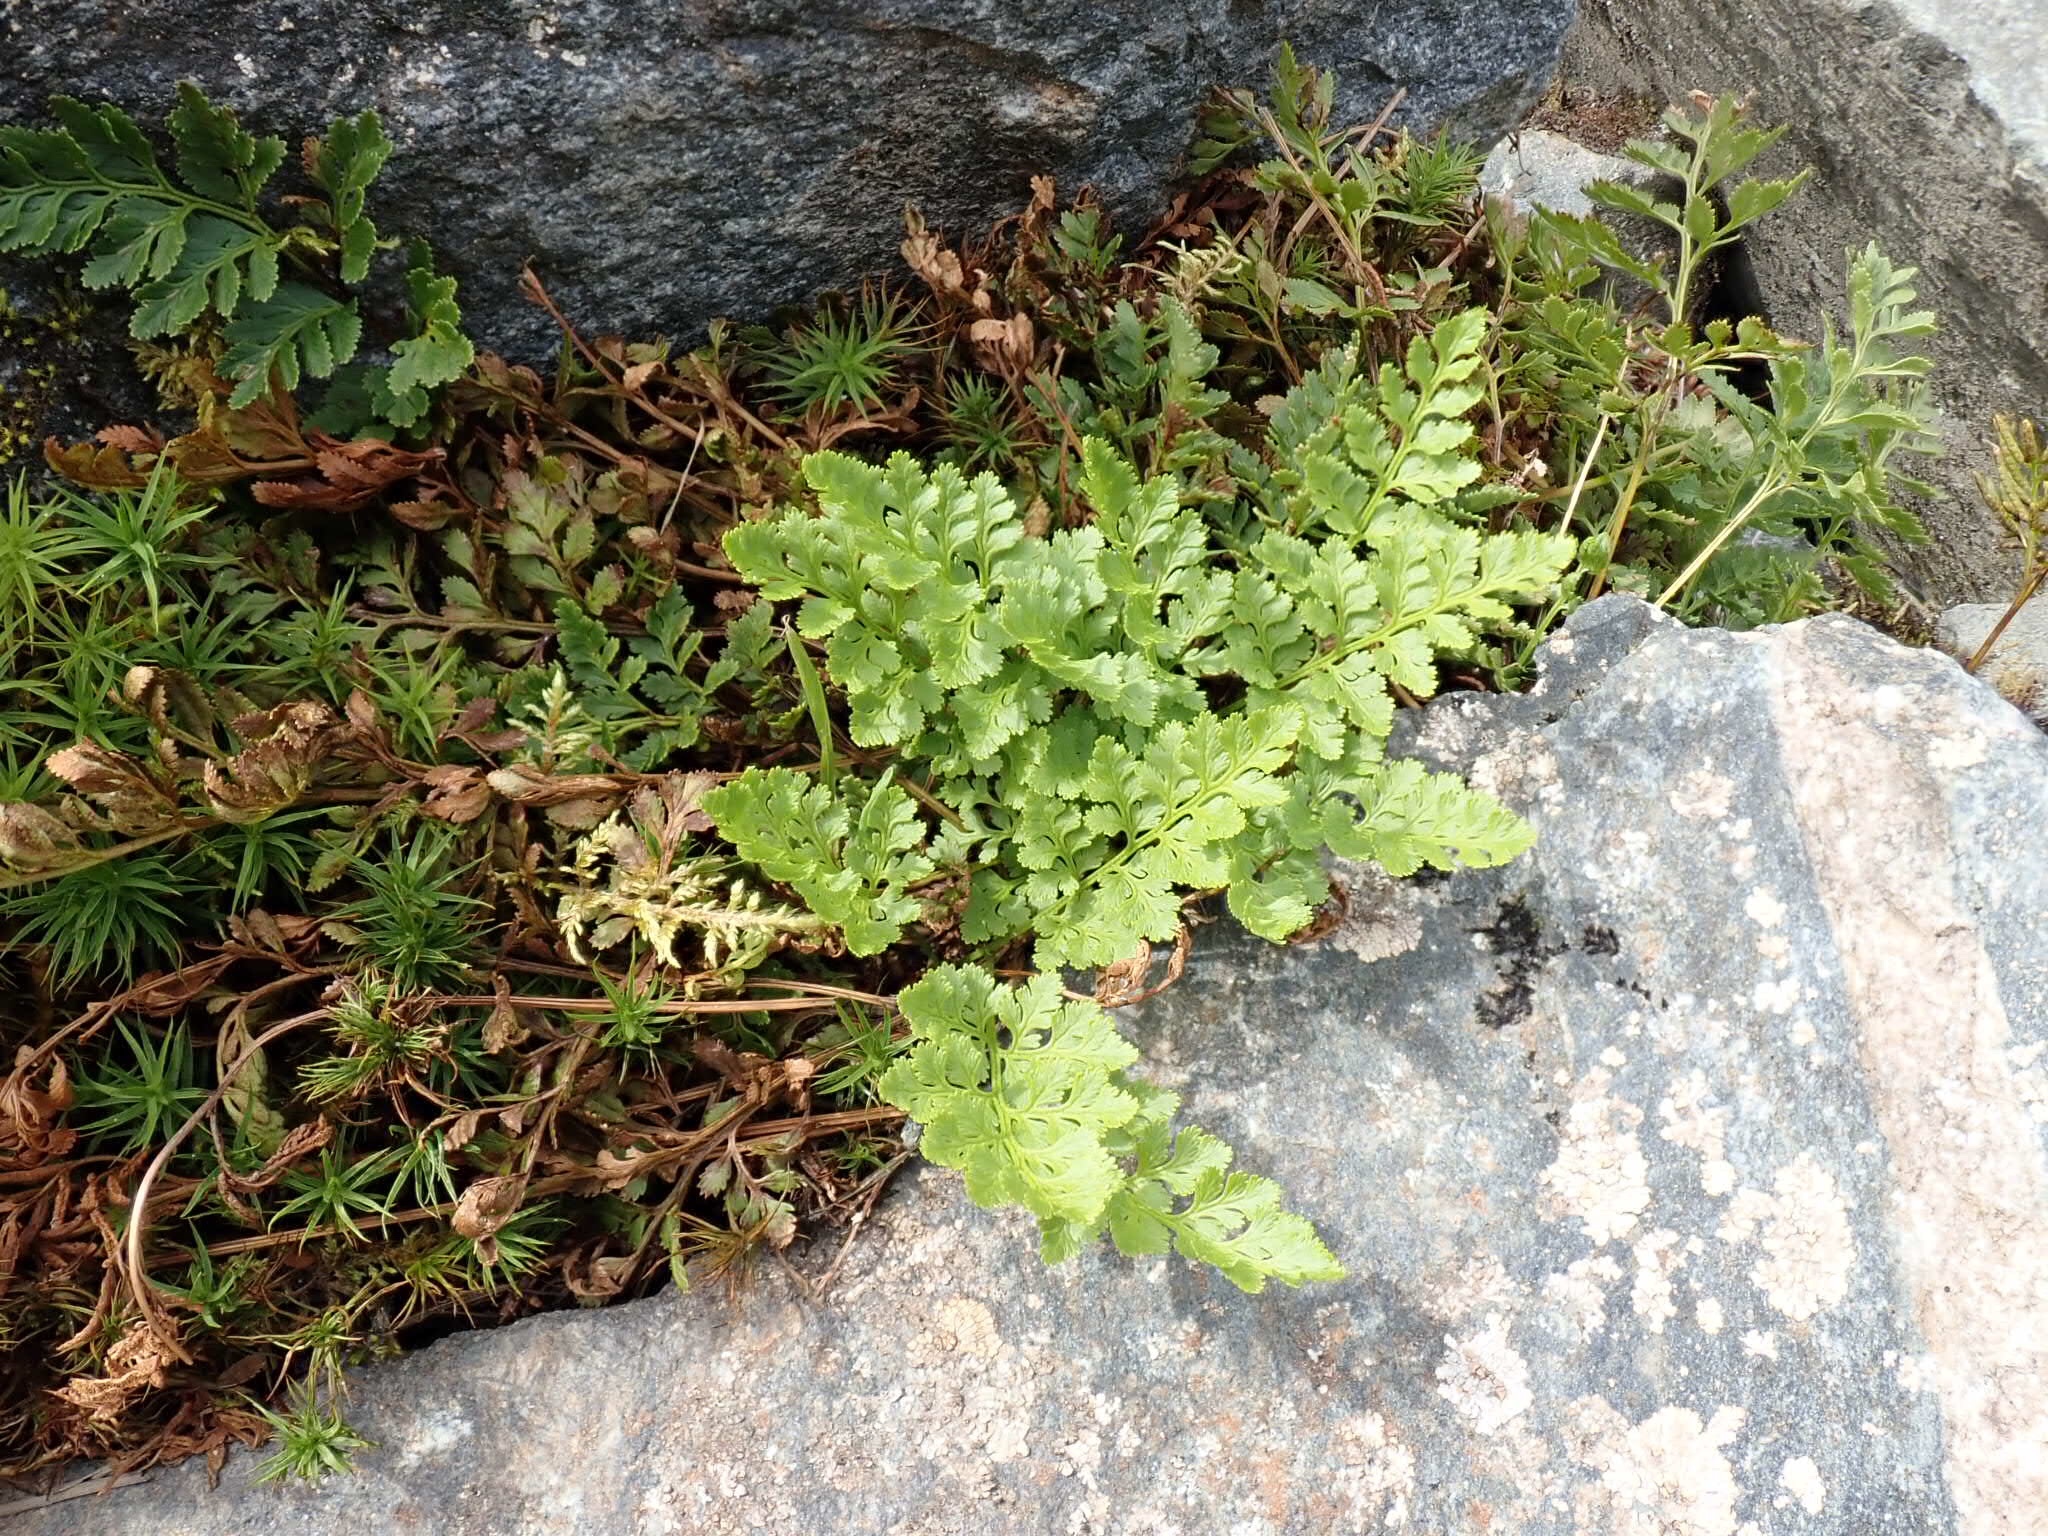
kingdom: Plantae
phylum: Tracheophyta
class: Polypodiopsida
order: Polypodiales
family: Pteridaceae
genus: Cryptogramma
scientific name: Cryptogramma acrostichoides
